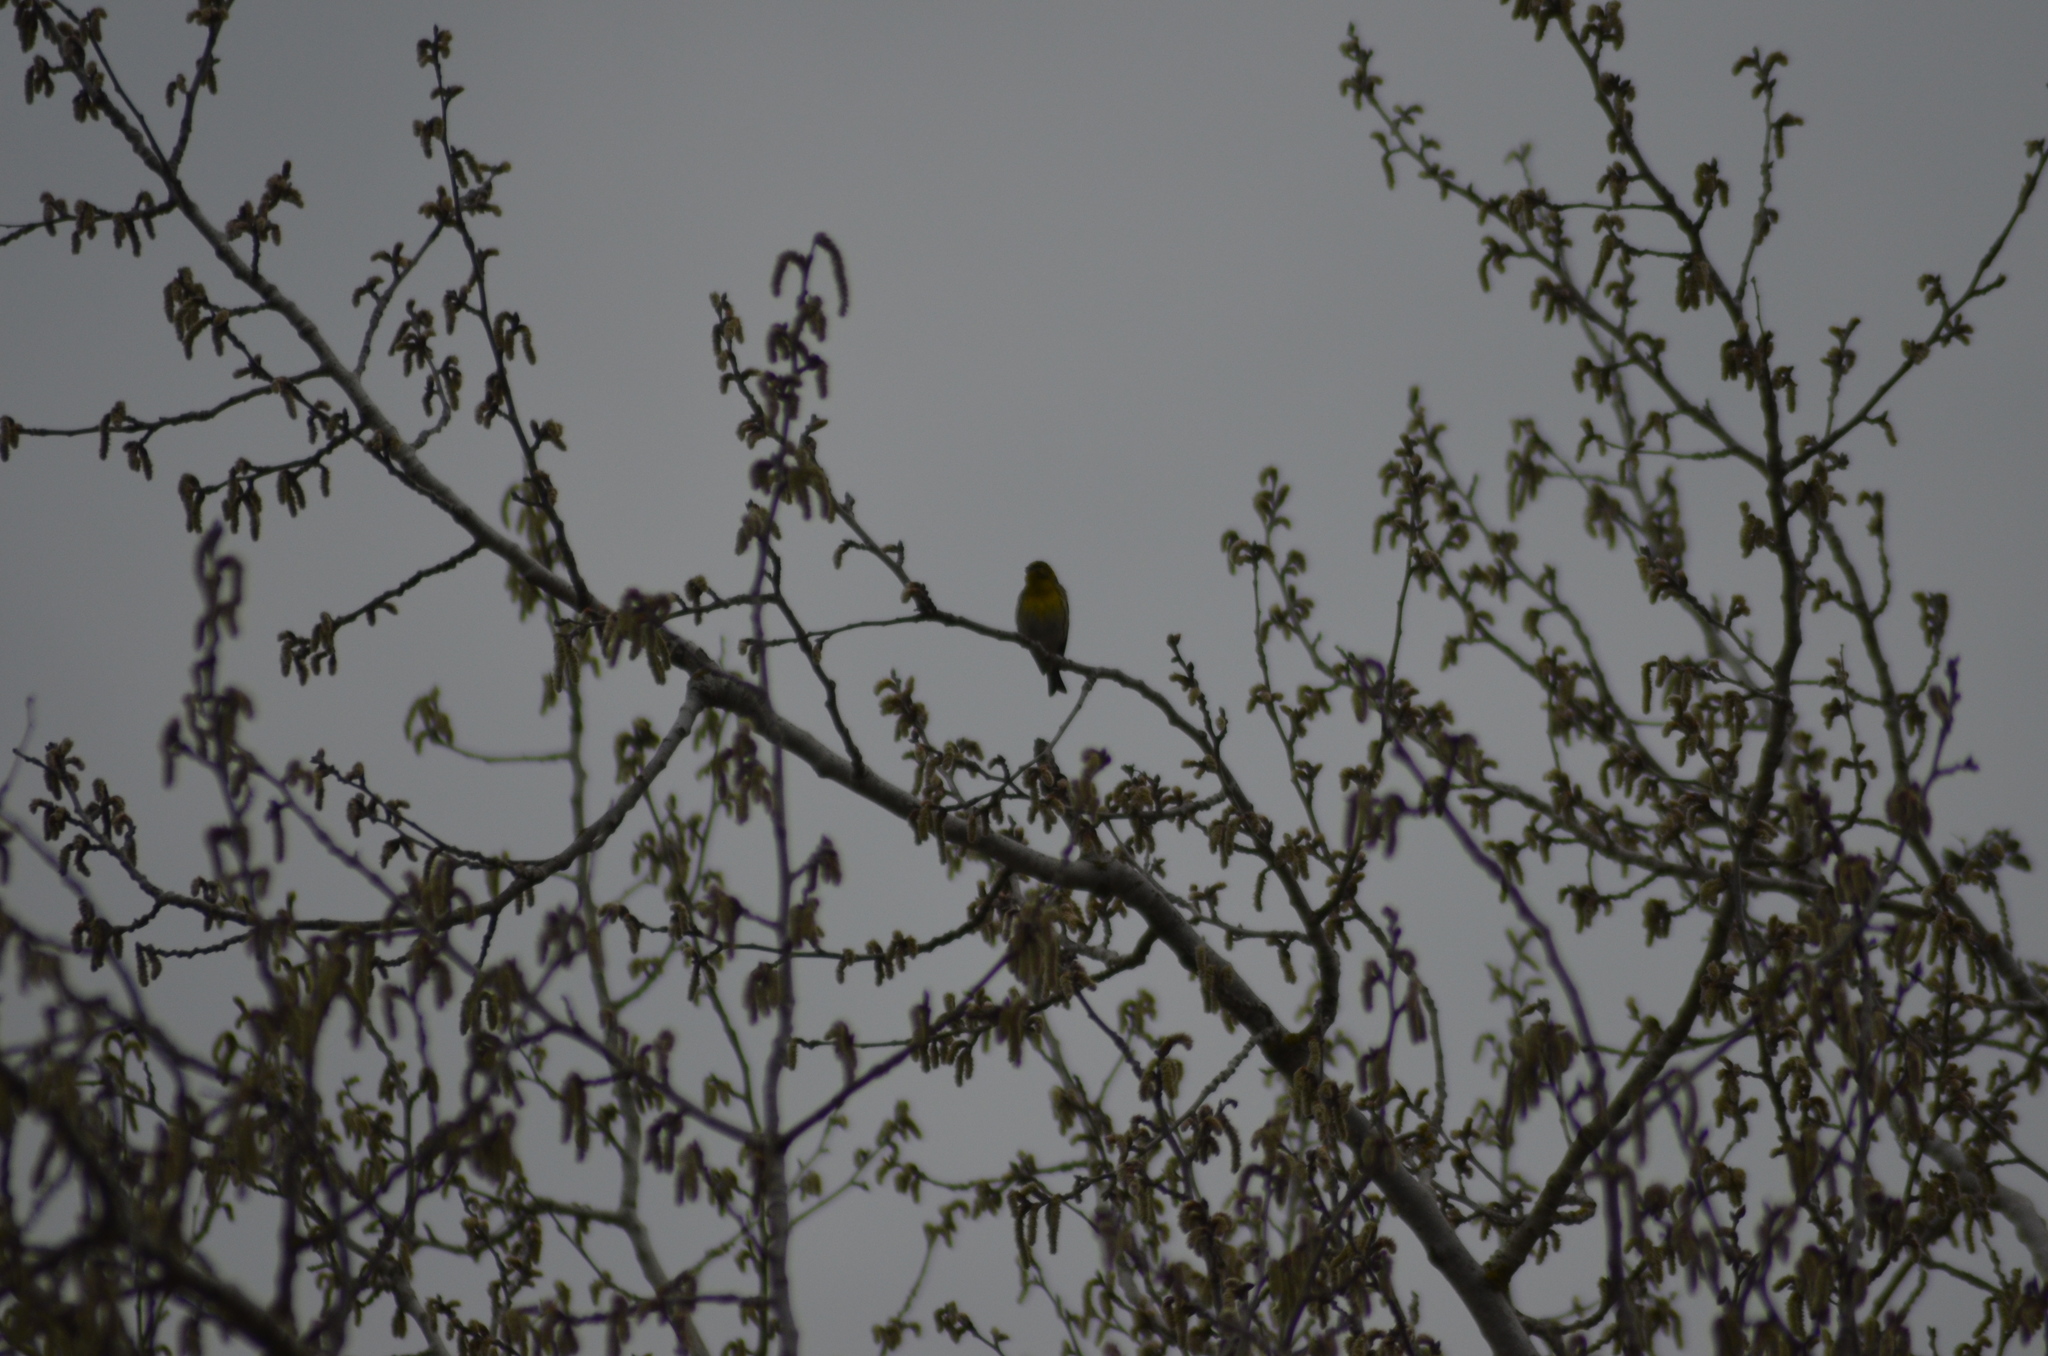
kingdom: Animalia
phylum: Chordata
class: Aves
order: Passeriformes
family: Fringillidae
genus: Serinus
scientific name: Serinus serinus
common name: European serin
